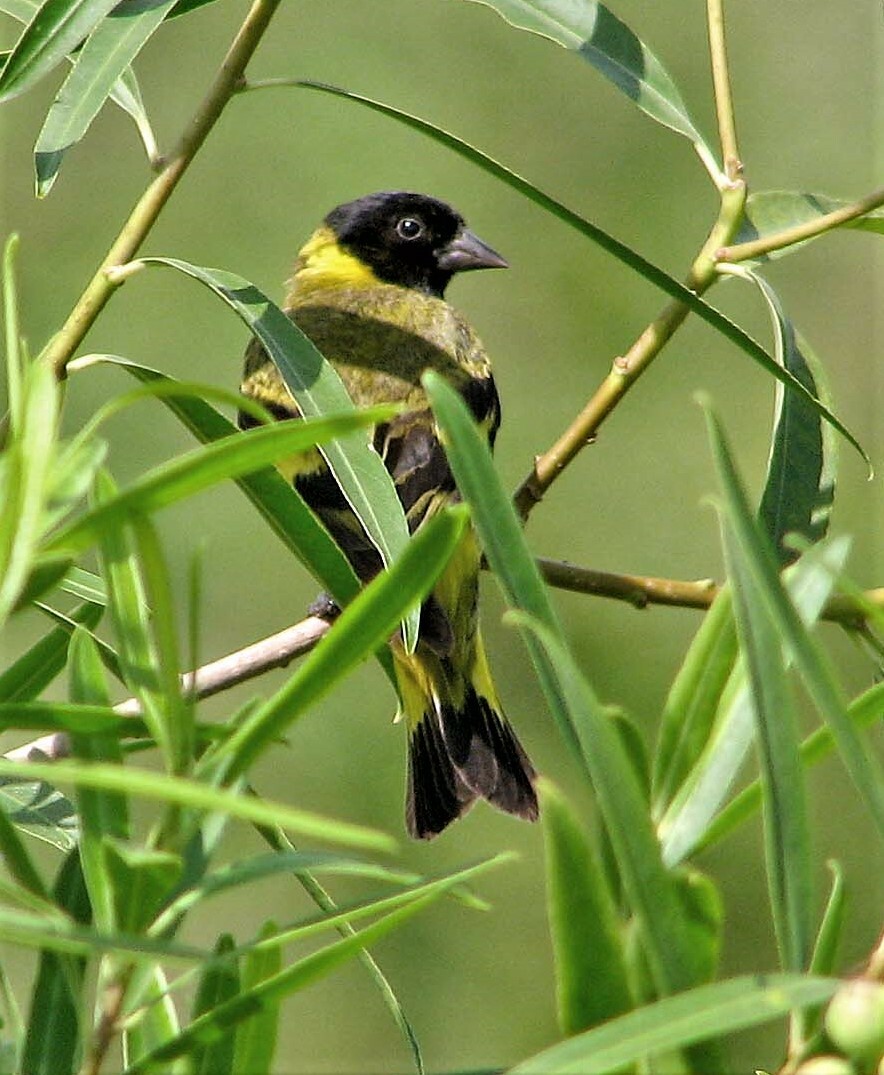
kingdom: Animalia
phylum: Chordata
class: Aves
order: Passeriformes
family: Fringillidae
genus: Spinus
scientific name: Spinus magellanicus
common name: Hooded siskin
